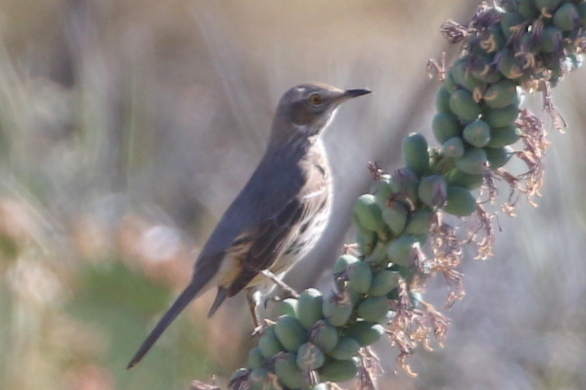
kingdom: Animalia
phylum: Chordata
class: Aves
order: Passeriformes
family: Mimidae
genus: Oreoscoptes
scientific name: Oreoscoptes montanus
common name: Sage thrasher
